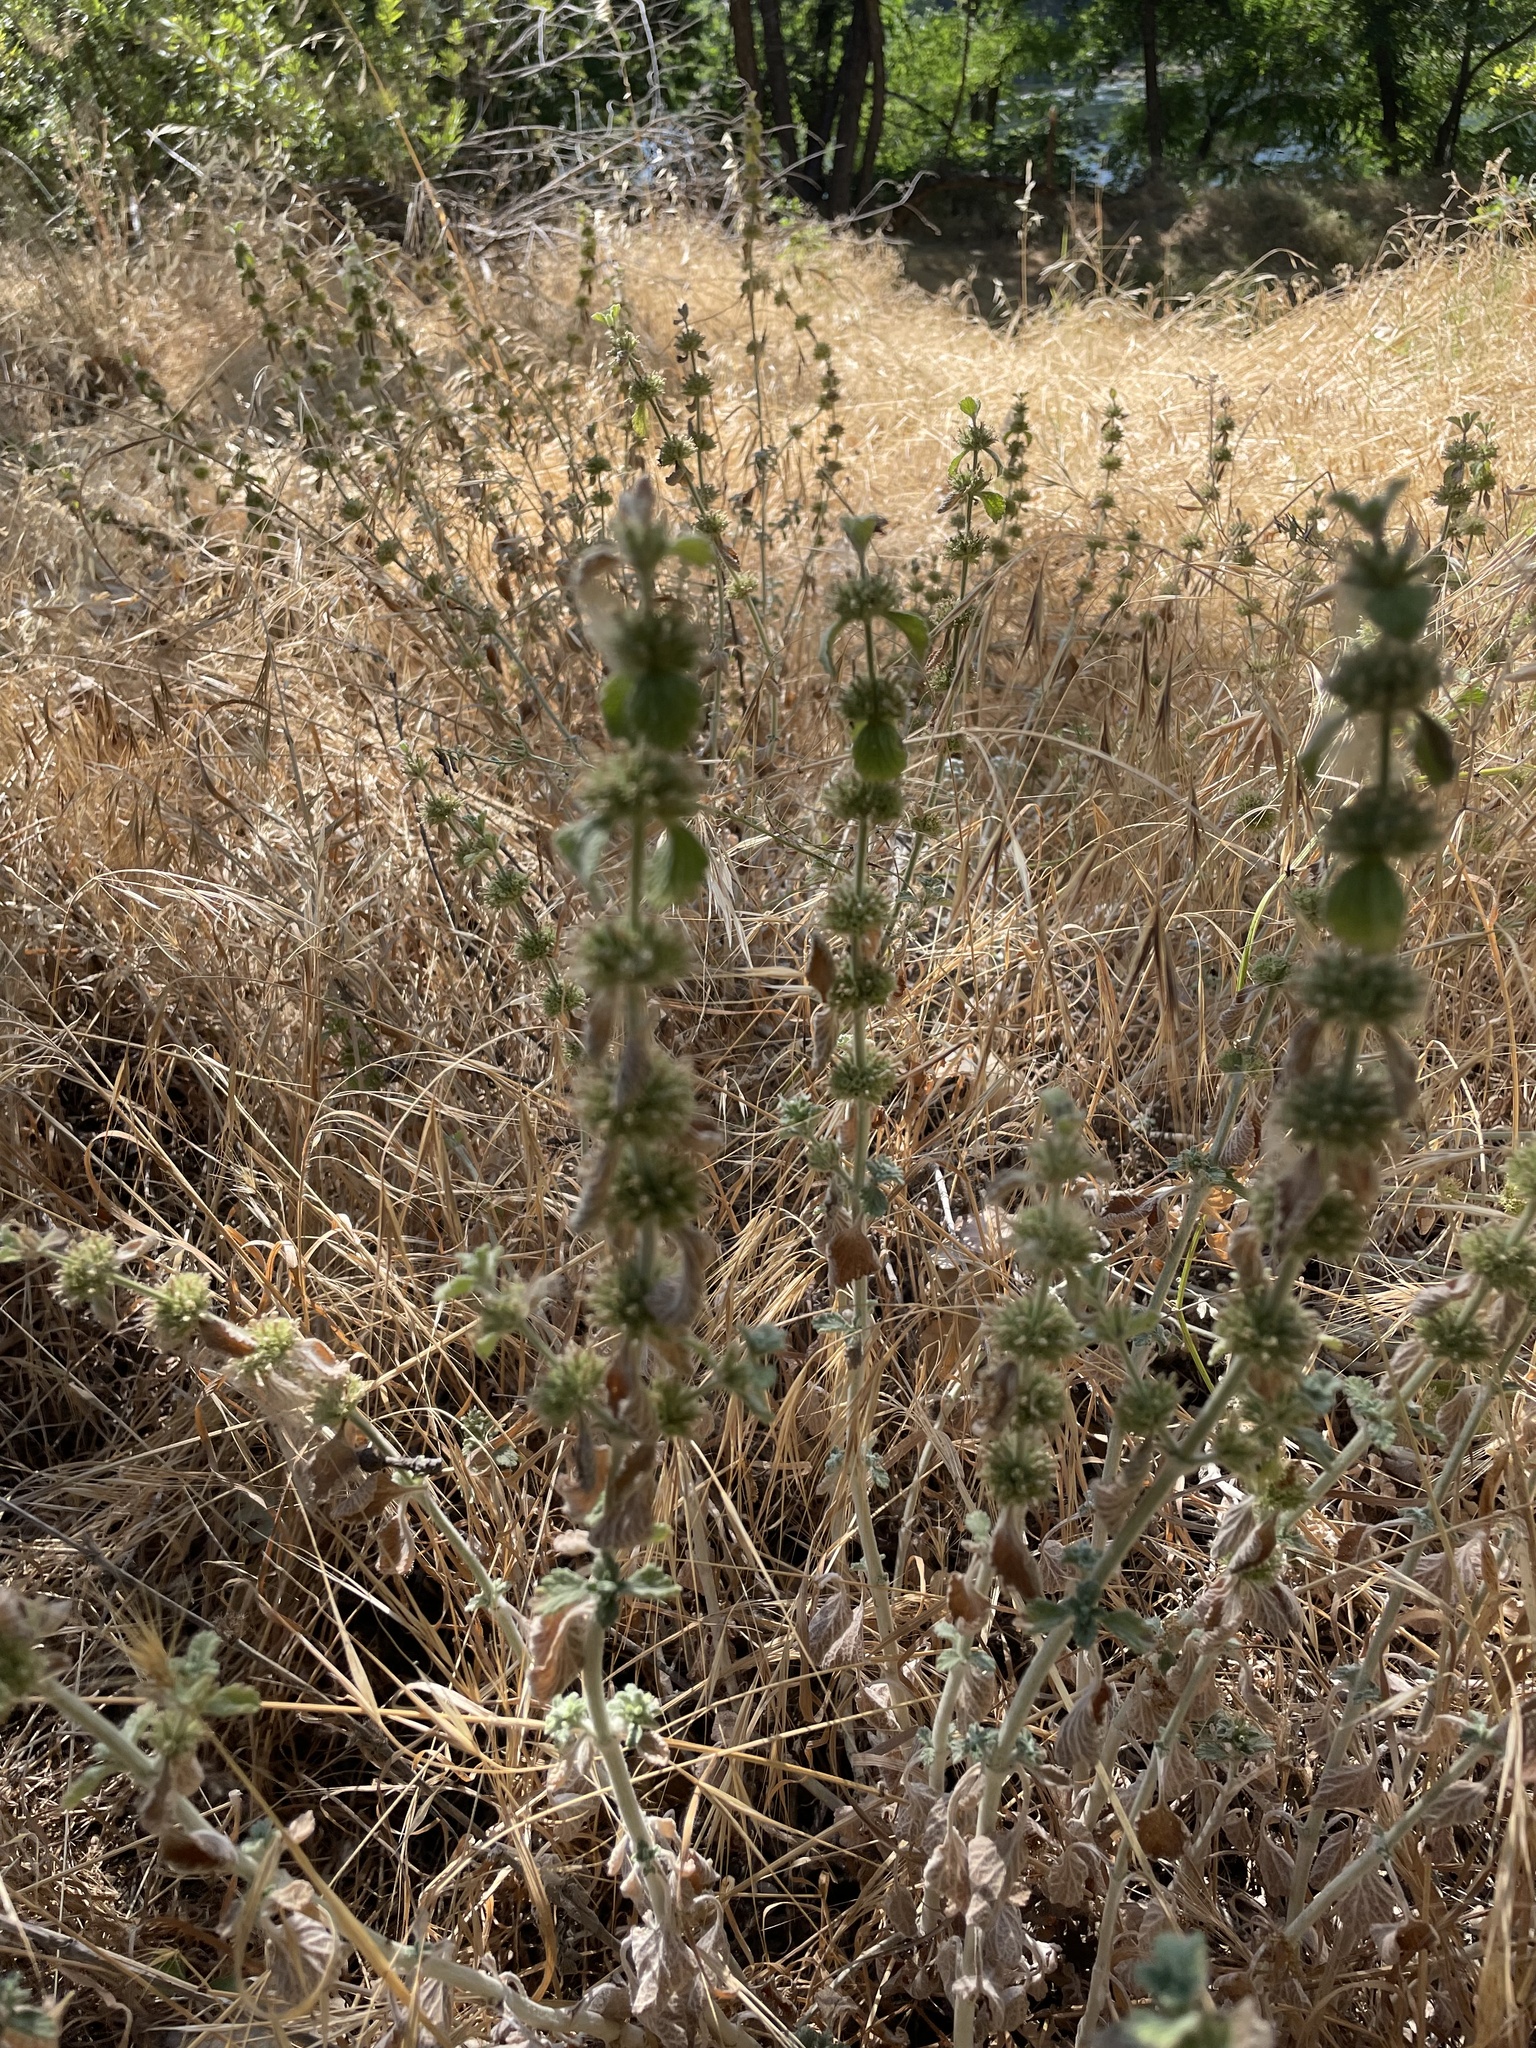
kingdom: Plantae
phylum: Tracheophyta
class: Magnoliopsida
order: Lamiales
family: Lamiaceae
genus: Marrubium
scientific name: Marrubium vulgare
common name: Horehound
